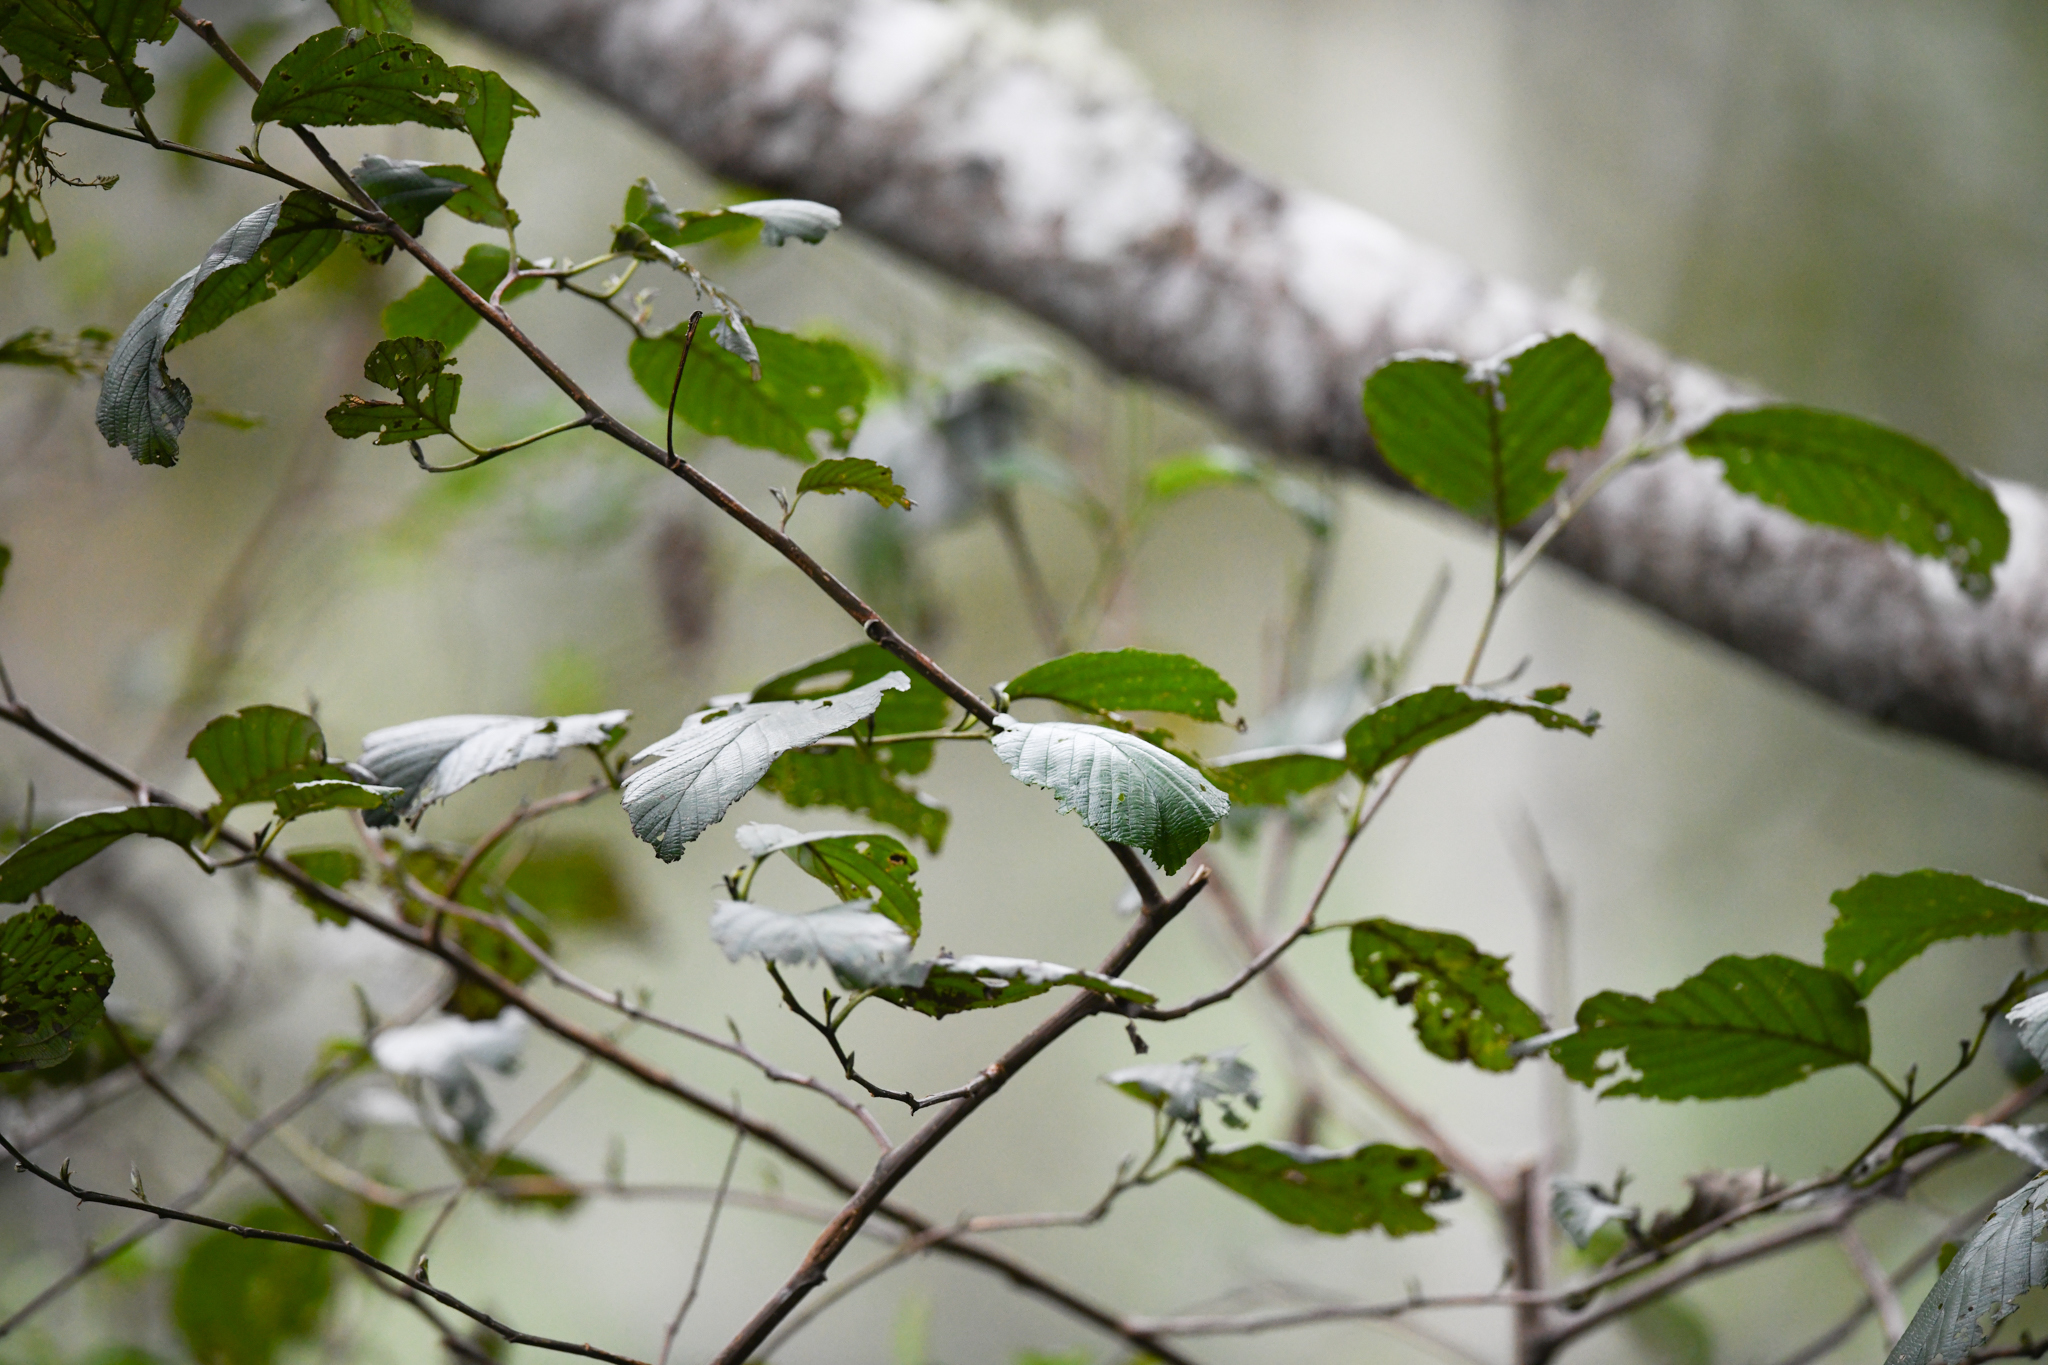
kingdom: Plantae
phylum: Tracheophyta
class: Magnoliopsida
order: Fagales
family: Betulaceae
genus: Alnus
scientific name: Alnus acuminata
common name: Alder
